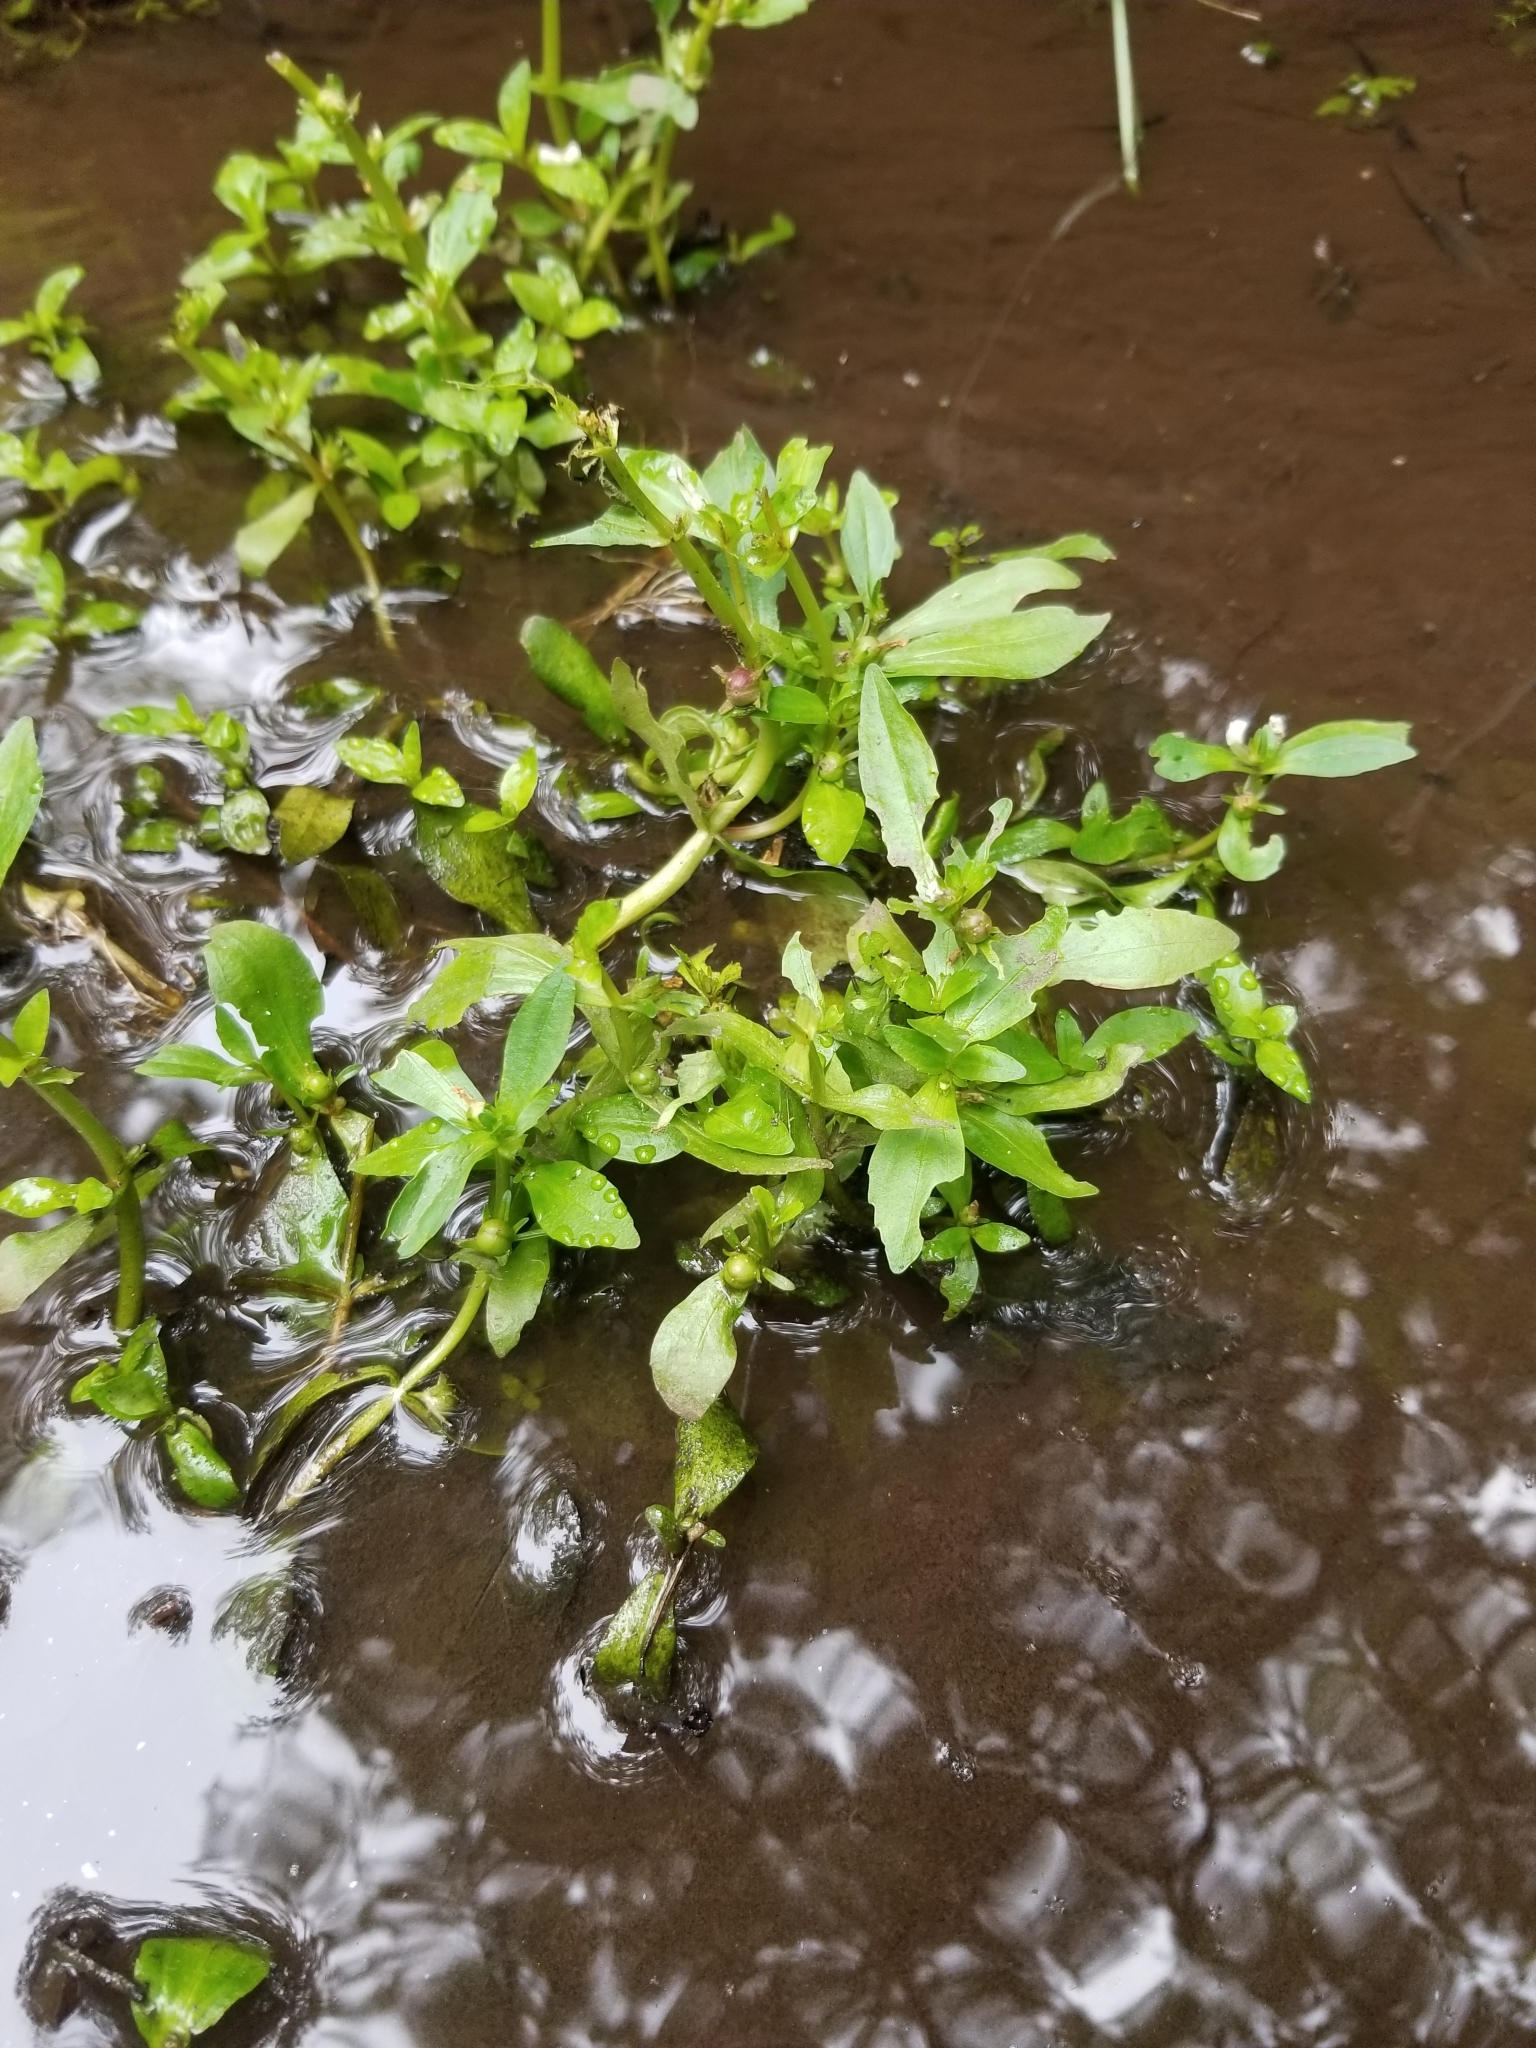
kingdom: Plantae
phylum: Tracheophyta
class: Magnoliopsida
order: Lamiales
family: Plantaginaceae
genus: Gratiola
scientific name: Gratiola virginiana
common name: Roundfruit hedgehyssop
